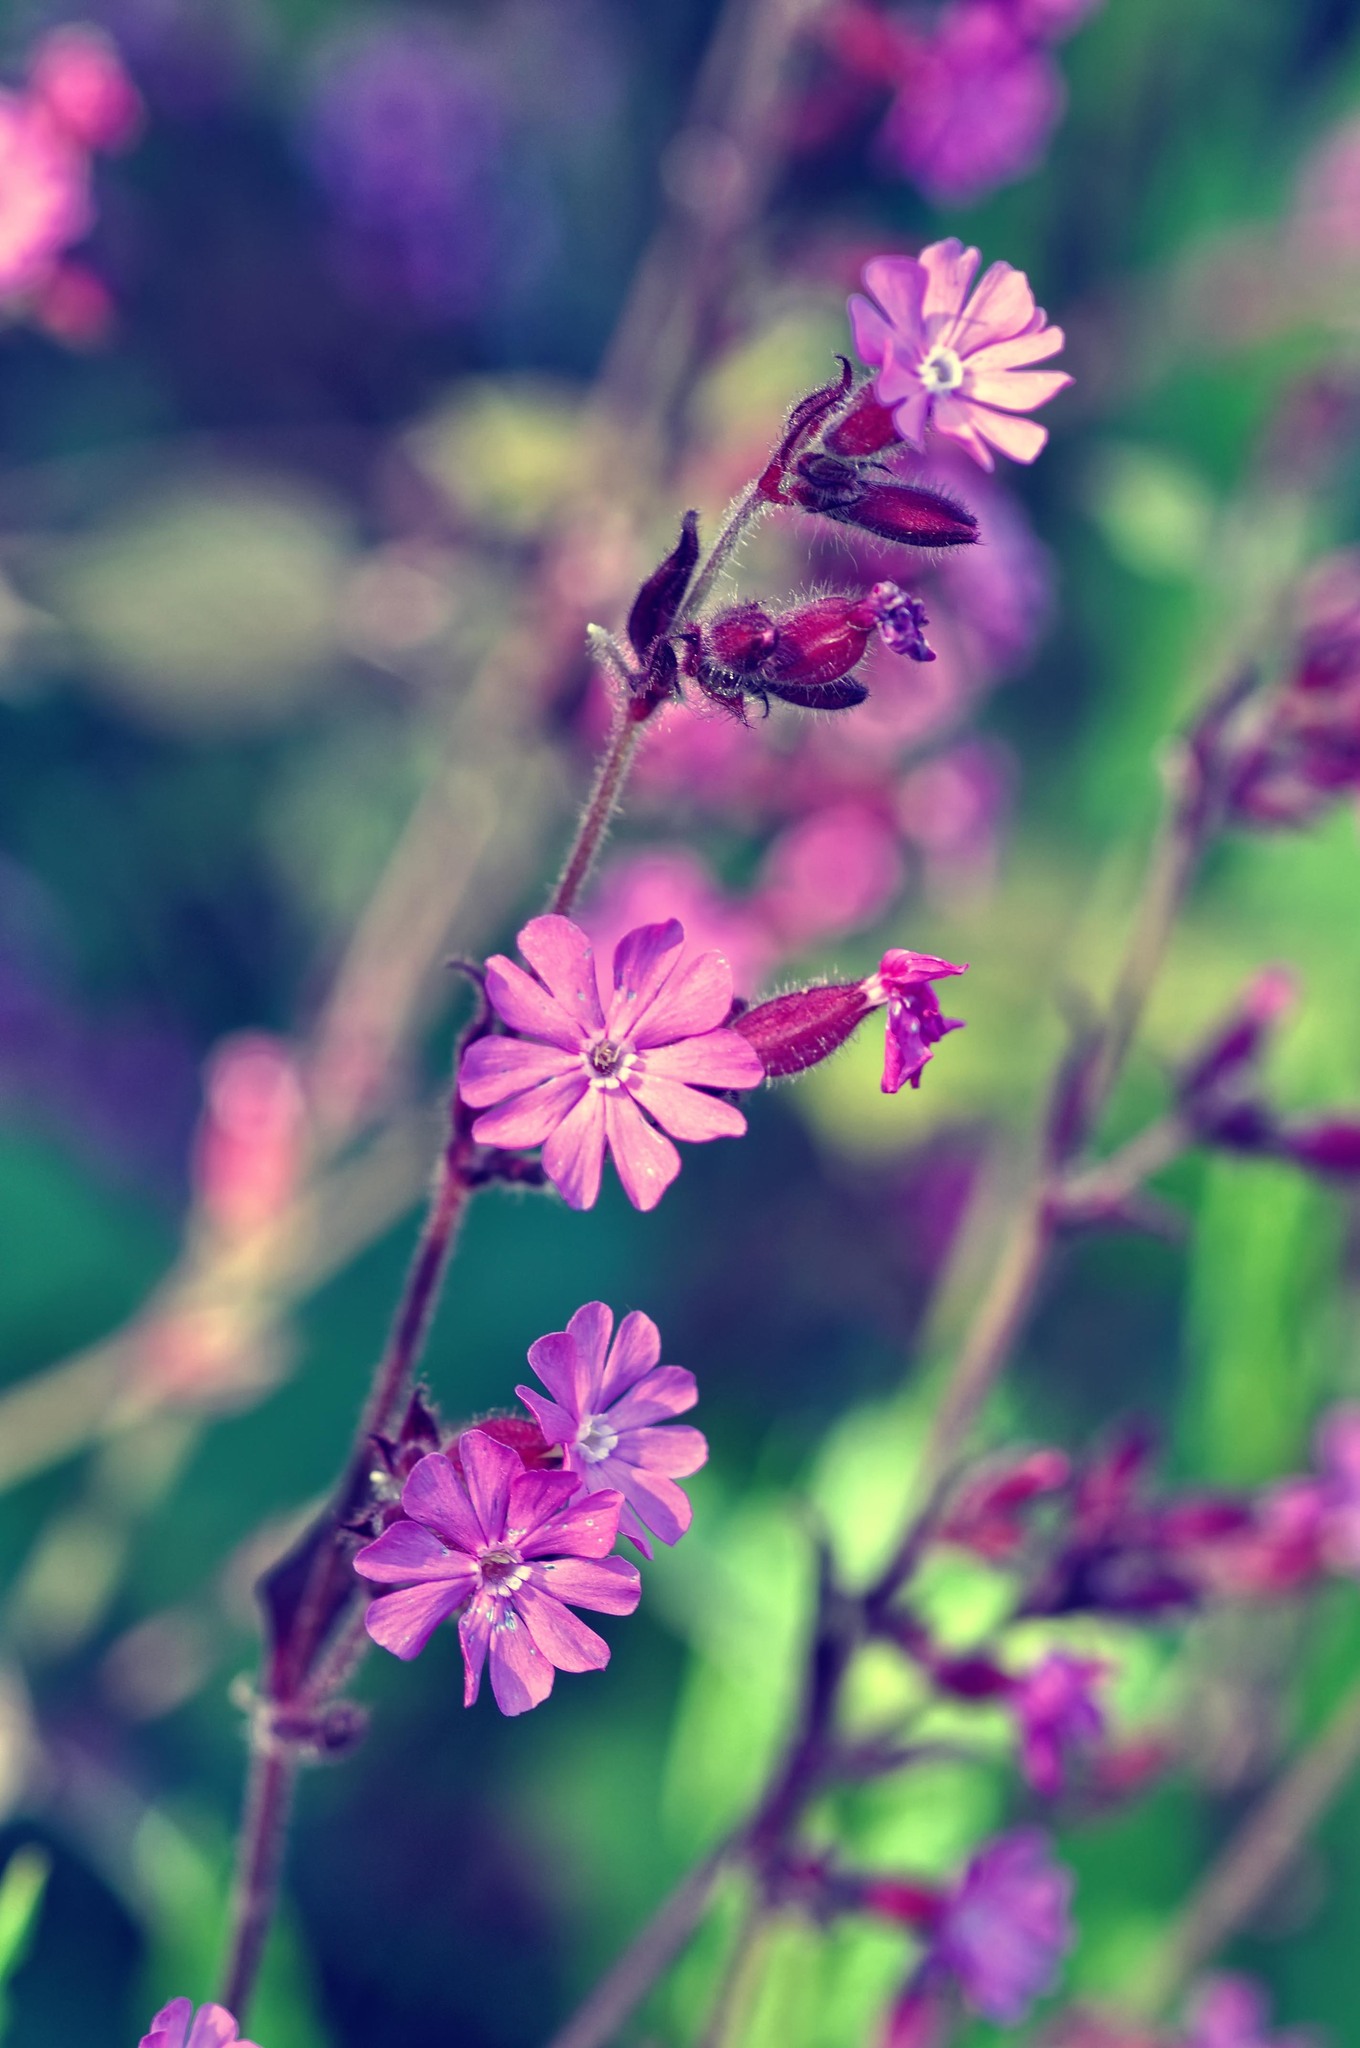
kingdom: Plantae
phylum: Tracheophyta
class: Magnoliopsida
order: Caryophyllales
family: Caryophyllaceae
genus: Silene
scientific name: Silene dioica
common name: Red campion
